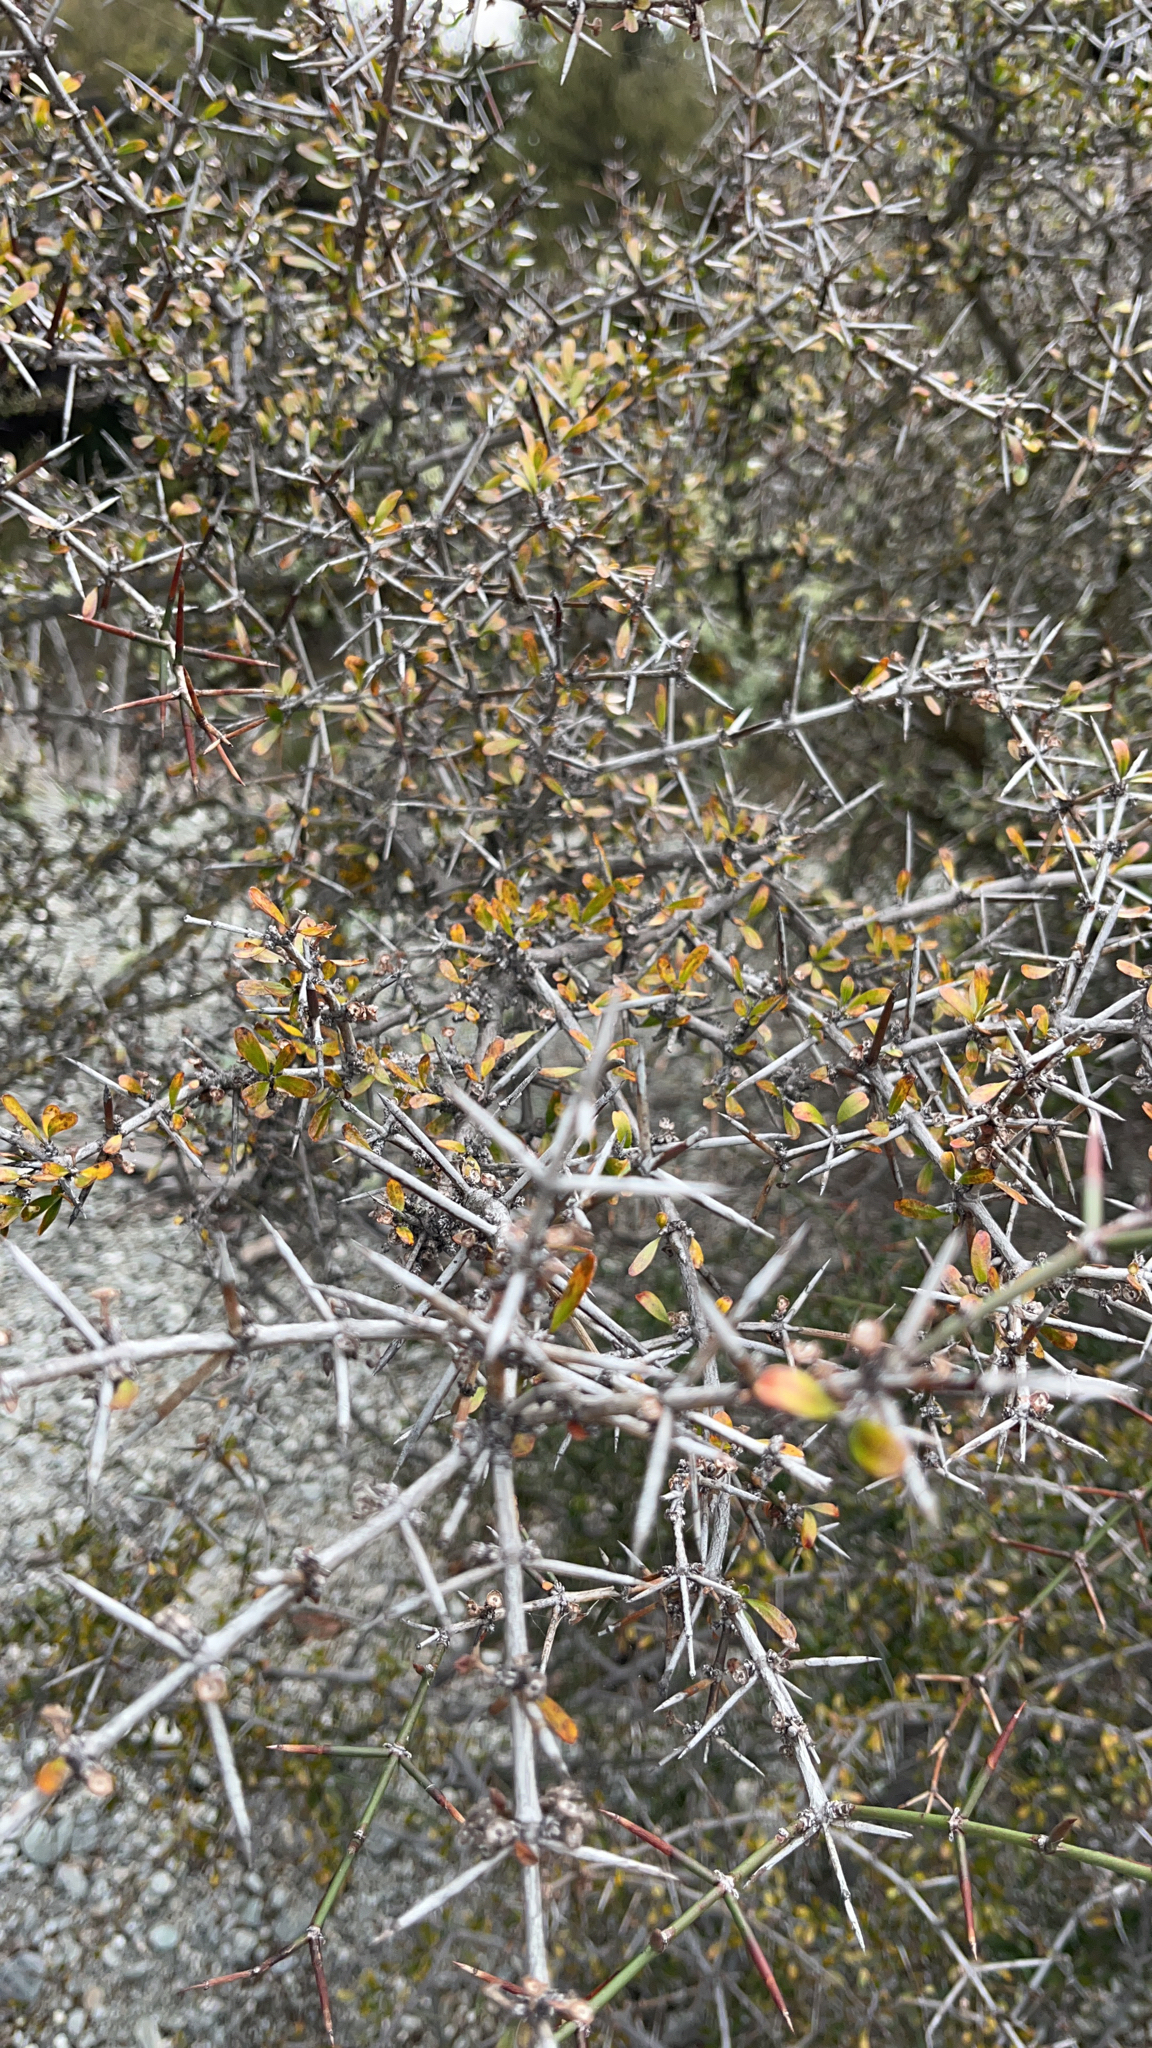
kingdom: Plantae
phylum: Tracheophyta
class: Magnoliopsida
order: Rosales
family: Rhamnaceae
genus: Discaria
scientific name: Discaria toumatou
